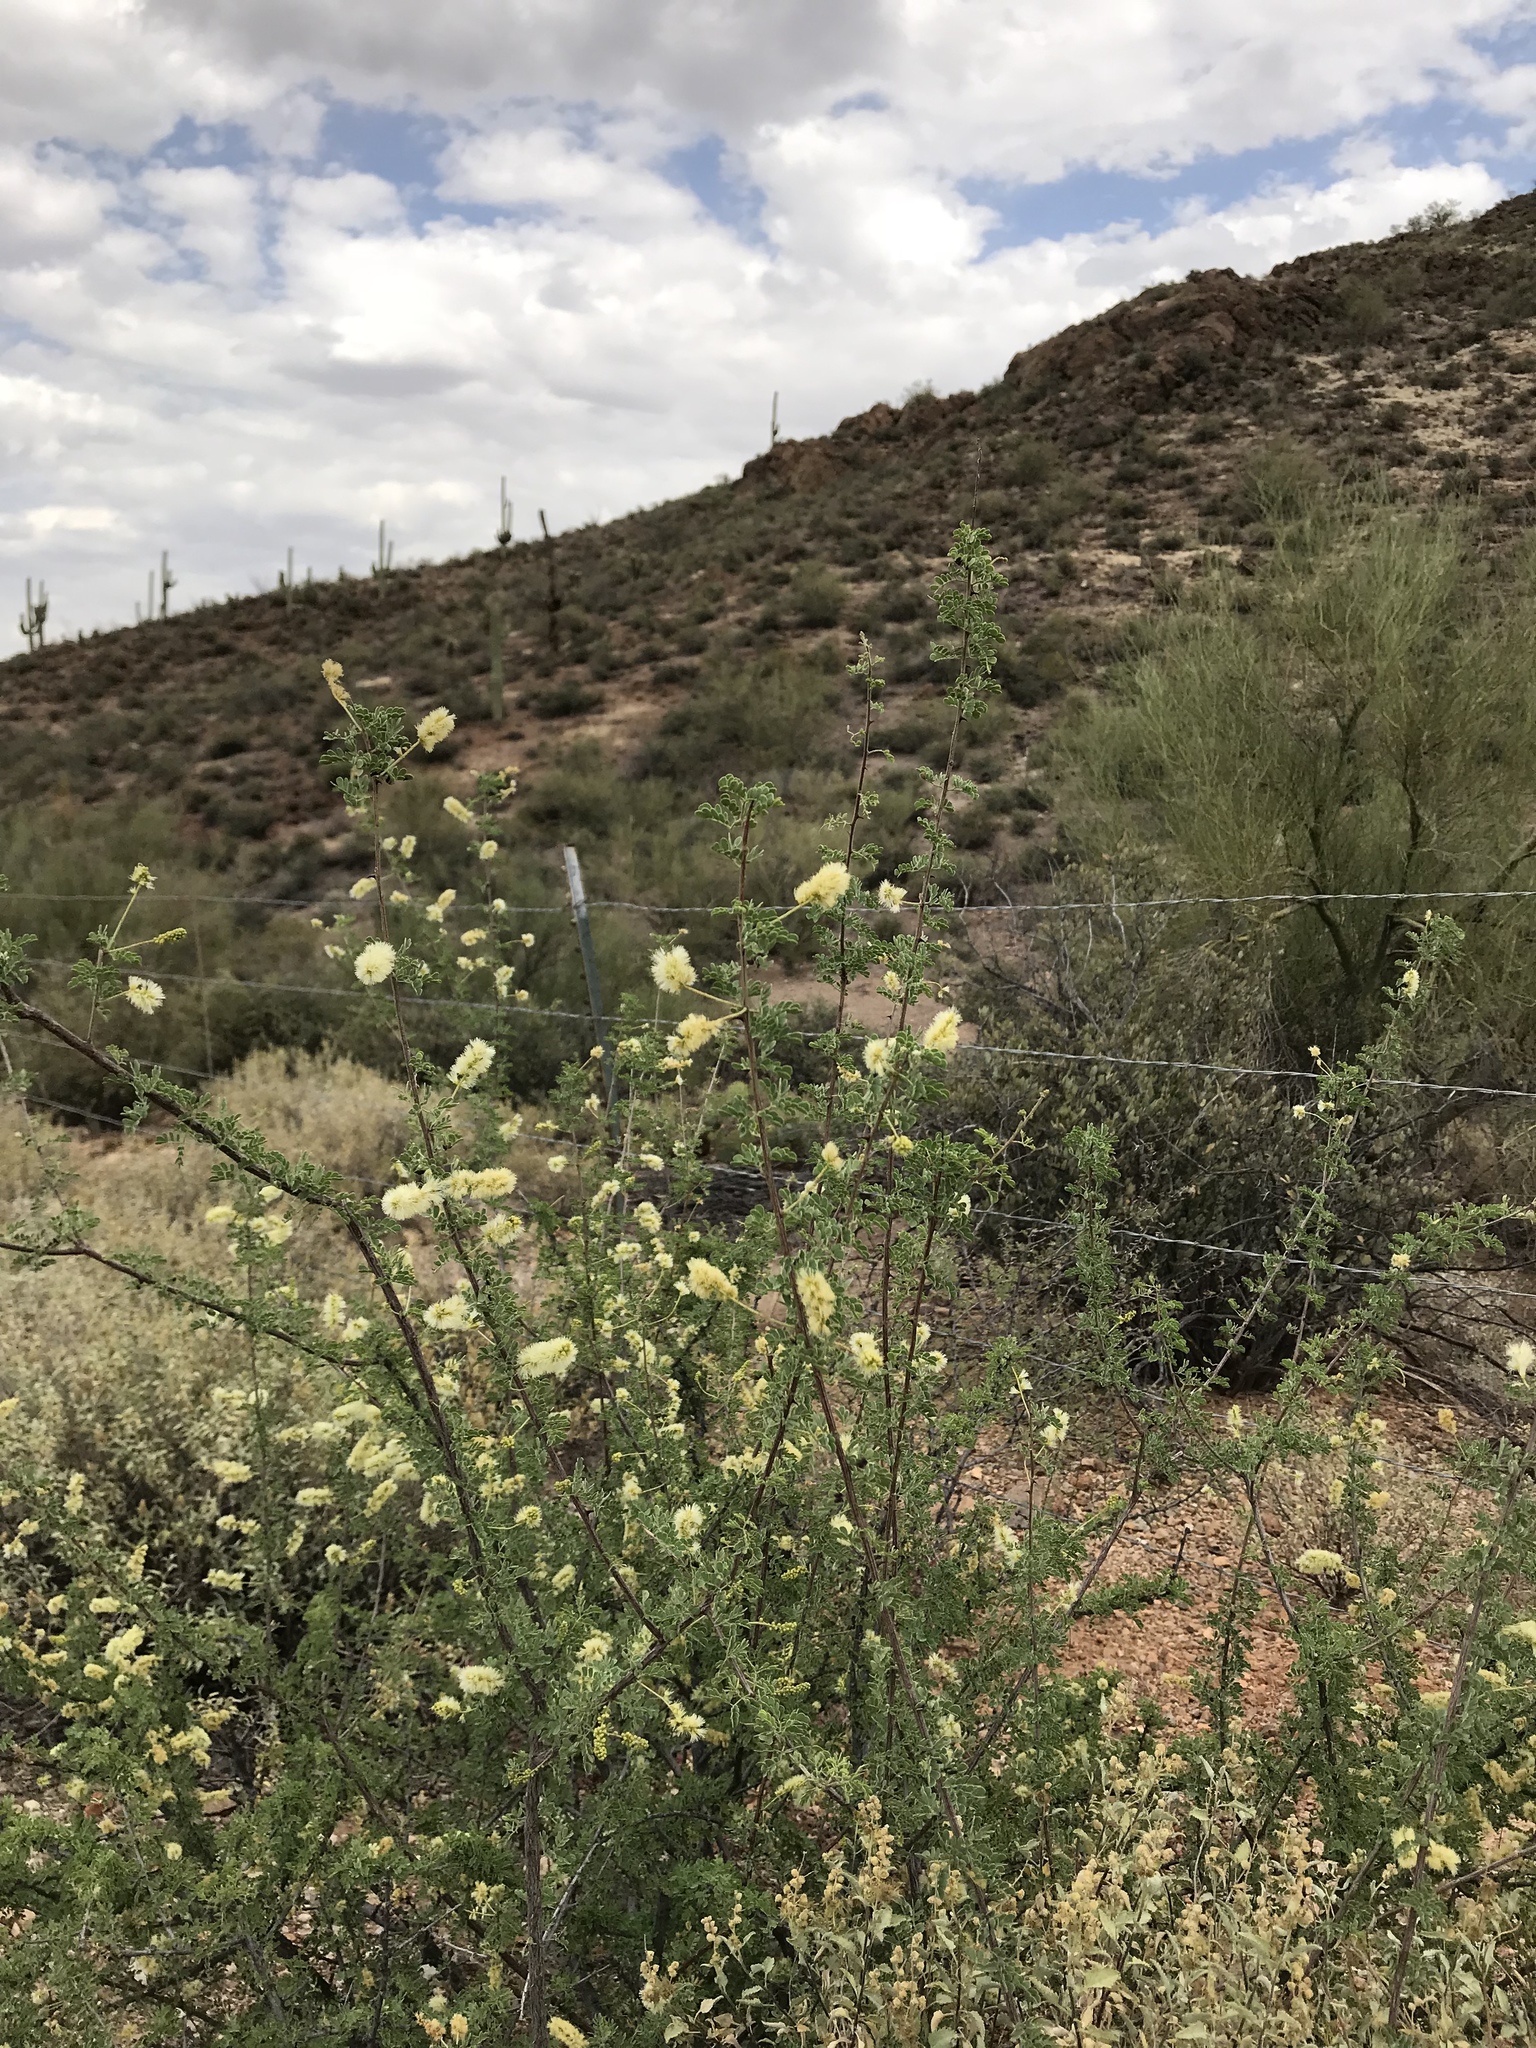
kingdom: Plantae
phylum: Tracheophyta
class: Magnoliopsida
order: Fabales
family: Fabaceae
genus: Senegalia
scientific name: Senegalia greggii
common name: Texas-mimosa
